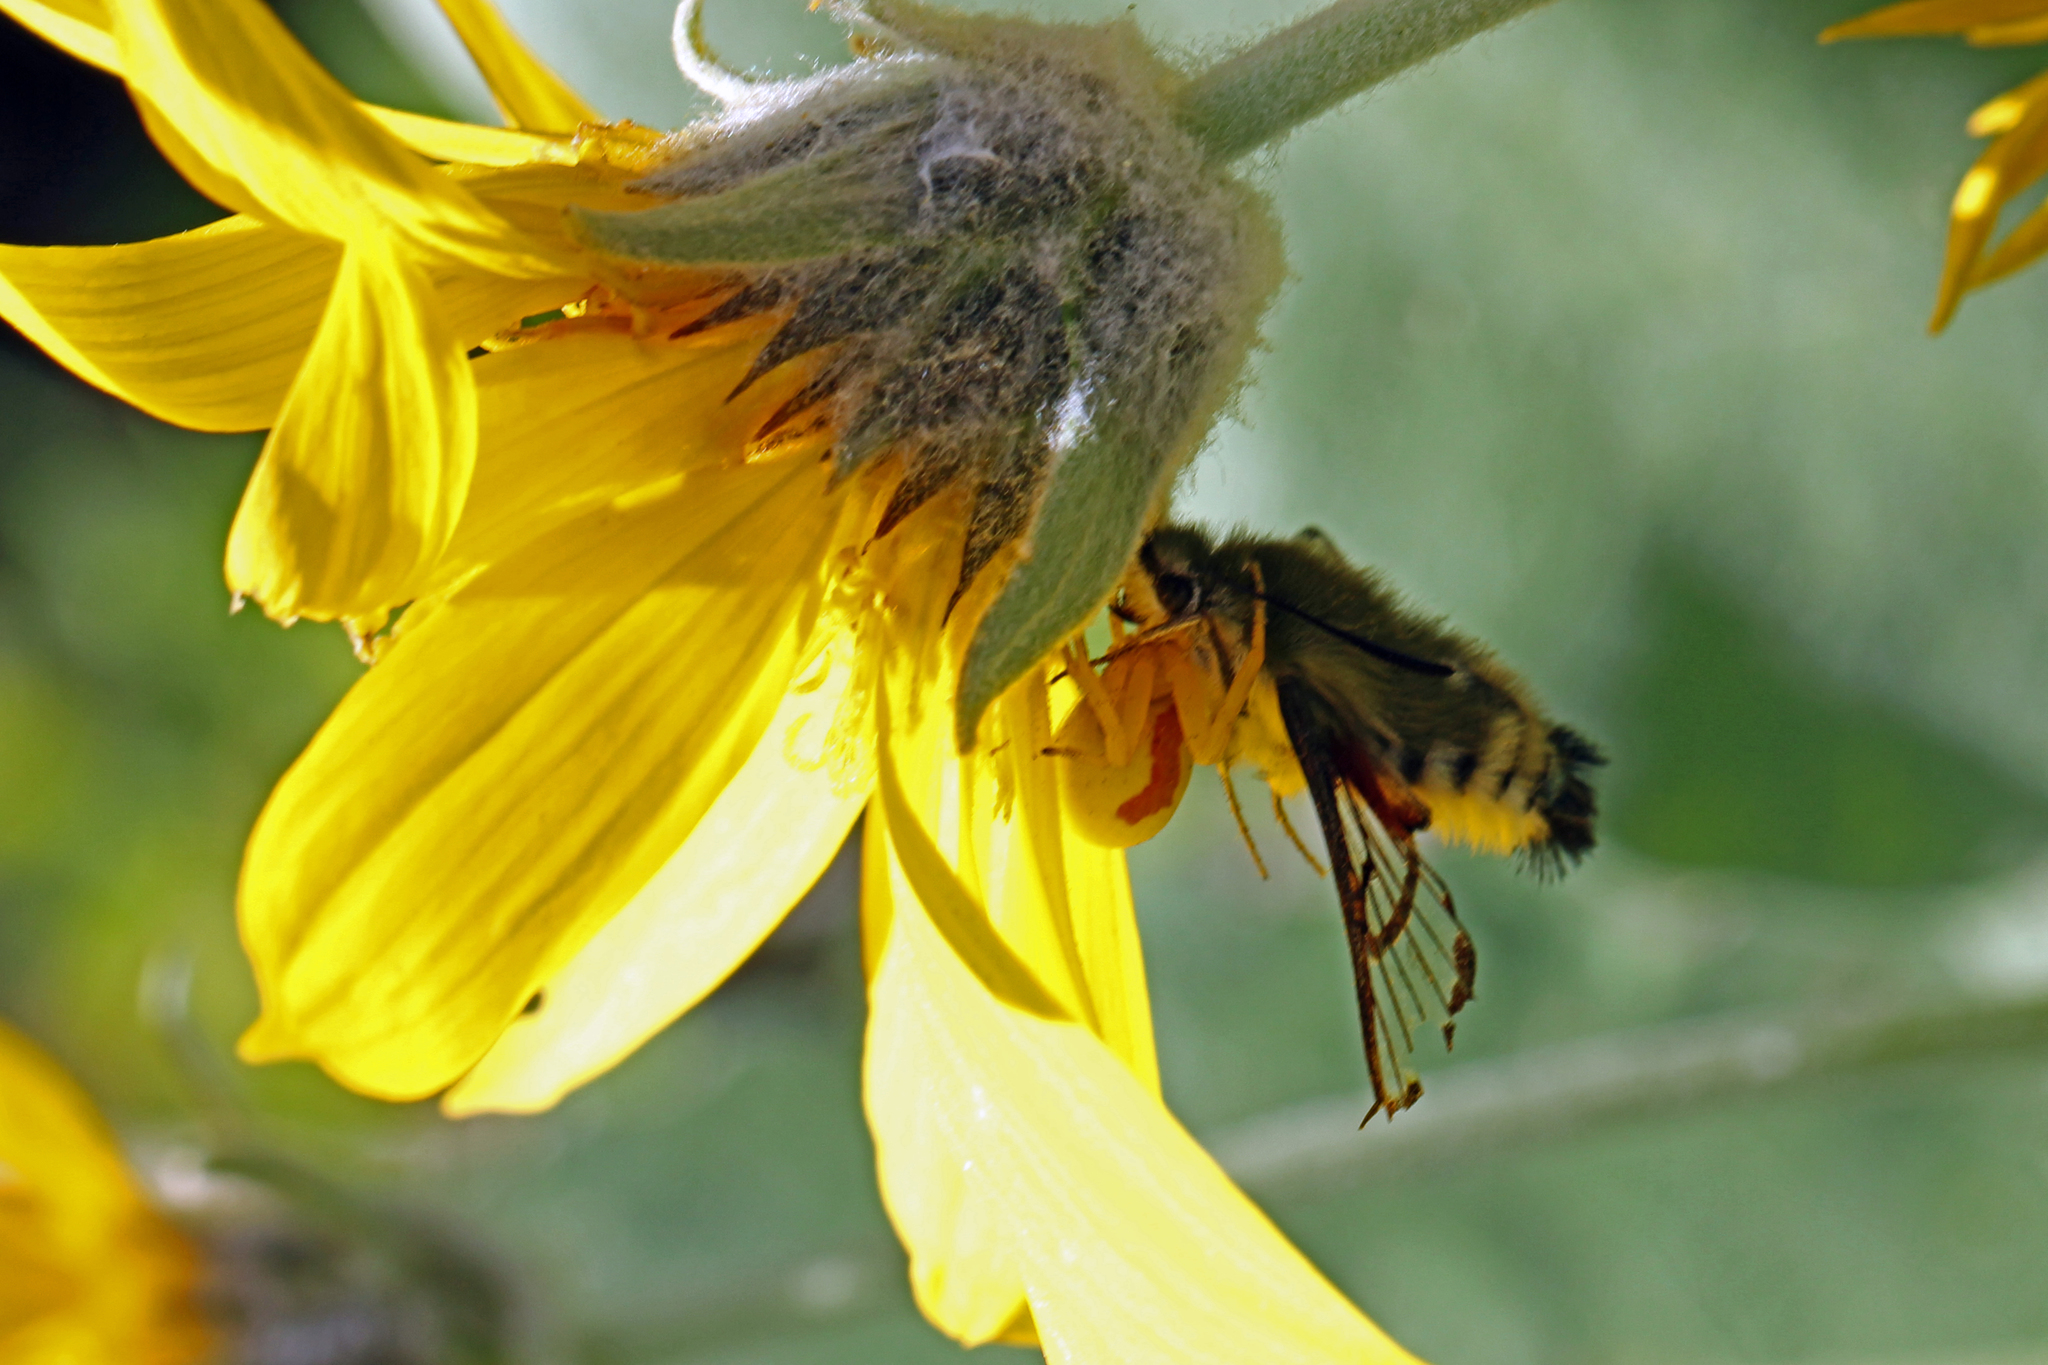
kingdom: Animalia
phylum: Arthropoda
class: Insecta
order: Lepidoptera
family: Sphingidae
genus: Hemaris
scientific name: Hemaris thetis
